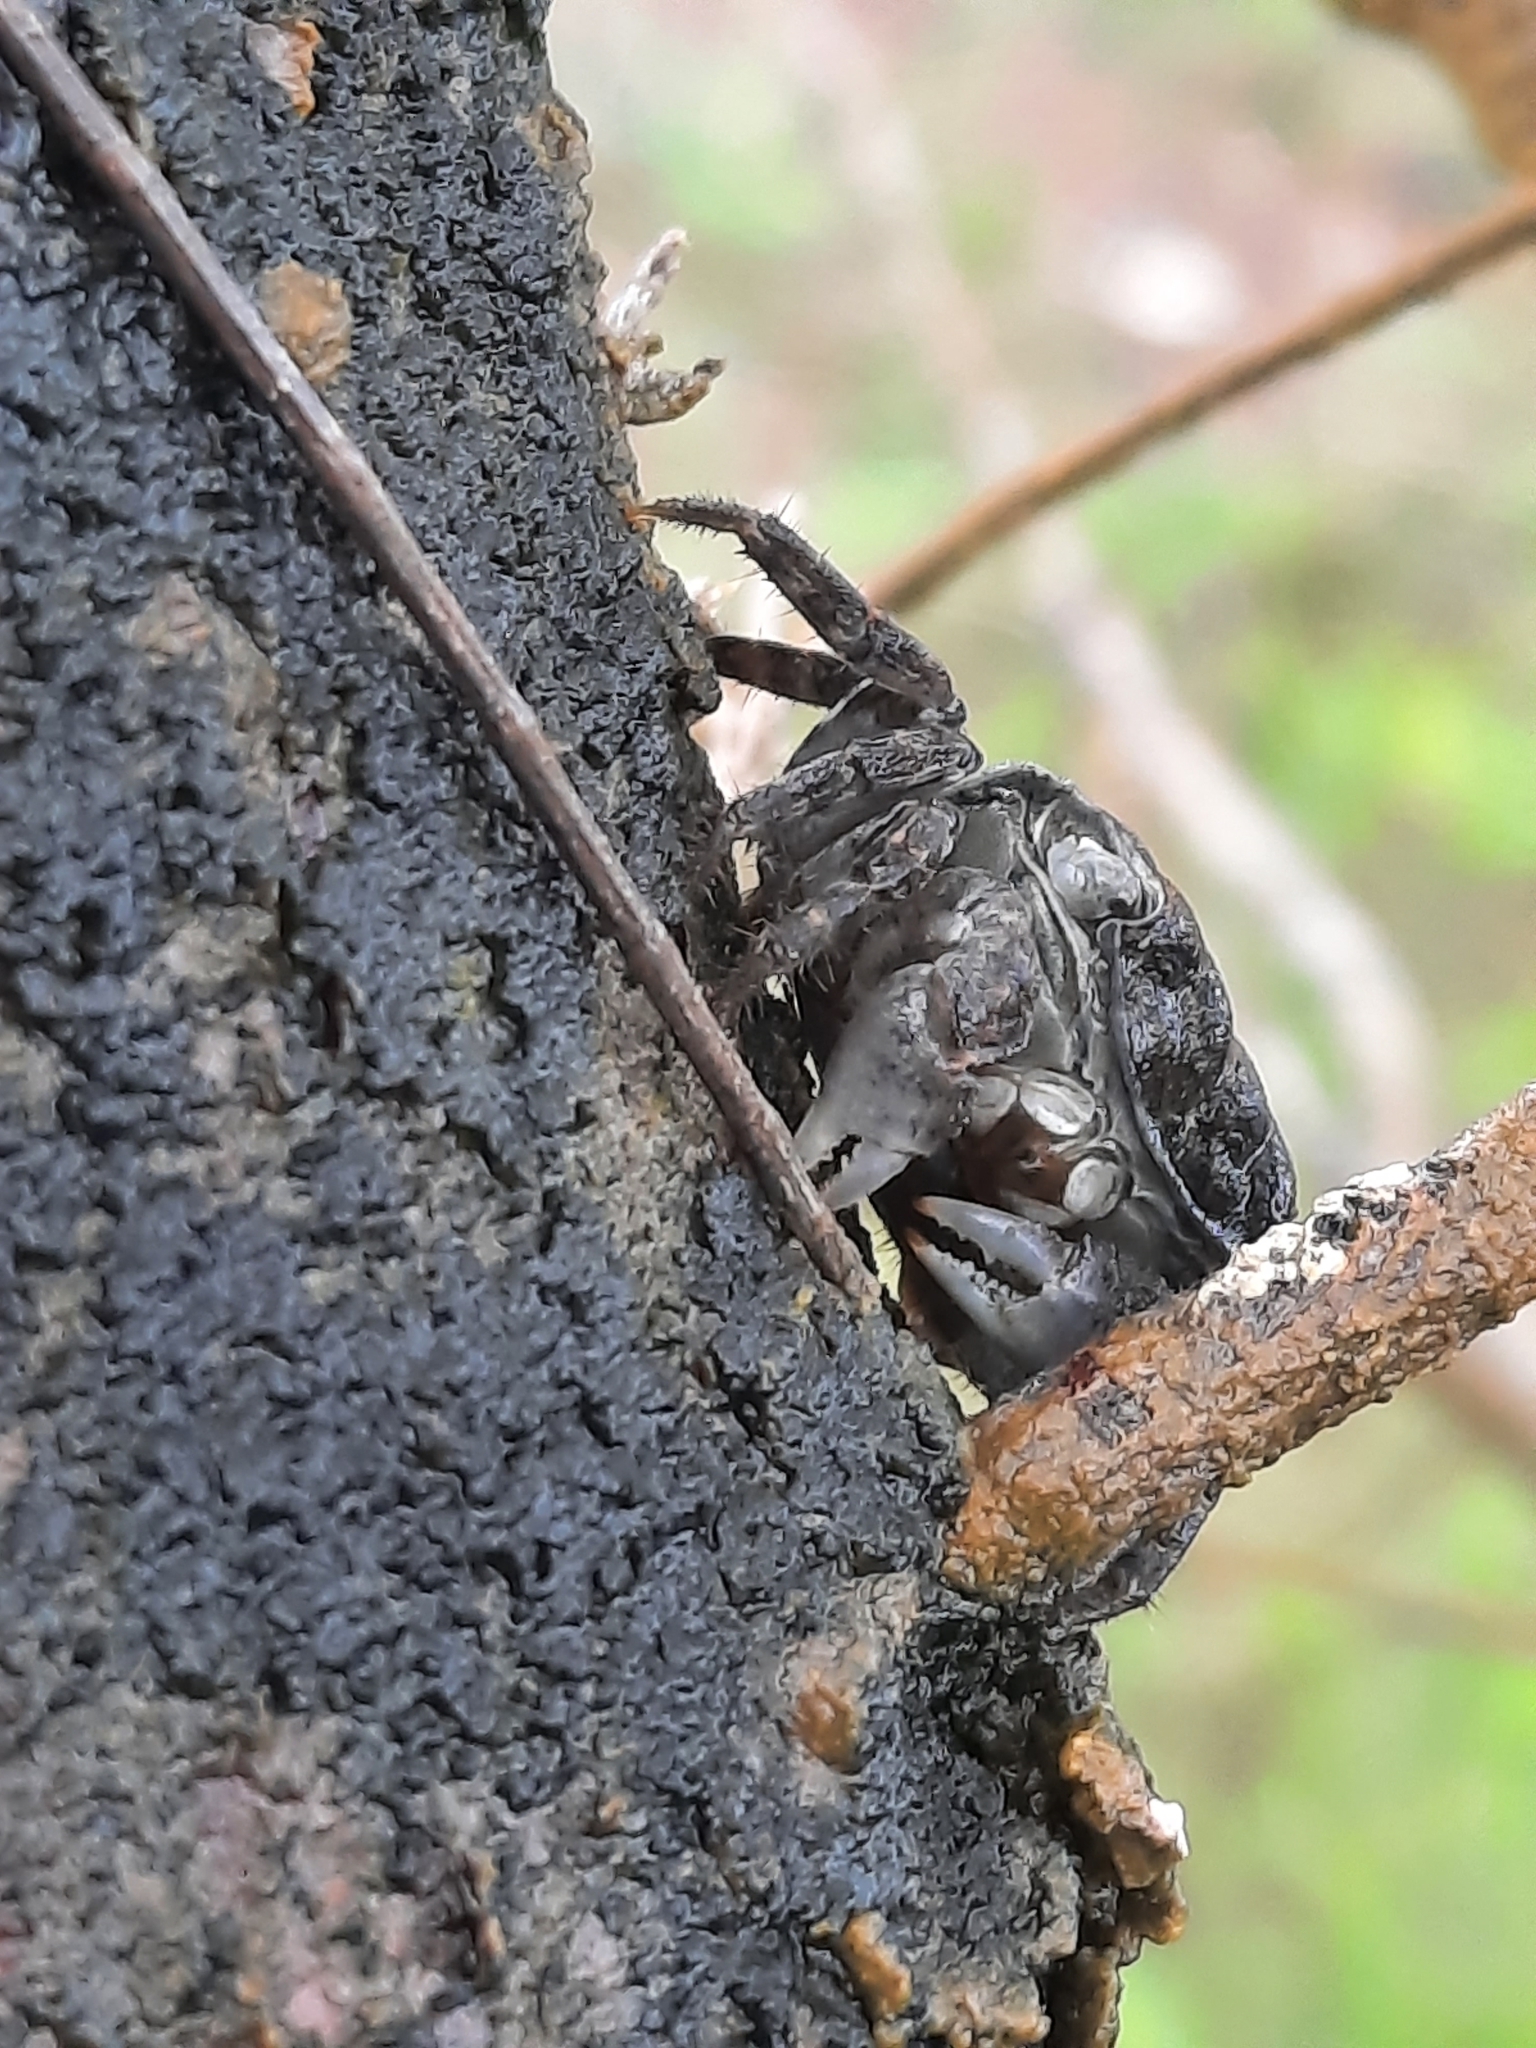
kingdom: Animalia
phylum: Arthropoda
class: Malacostraca
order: Decapoda
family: Sesarmidae
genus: Danarma
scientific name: Danarma obtusifrons
